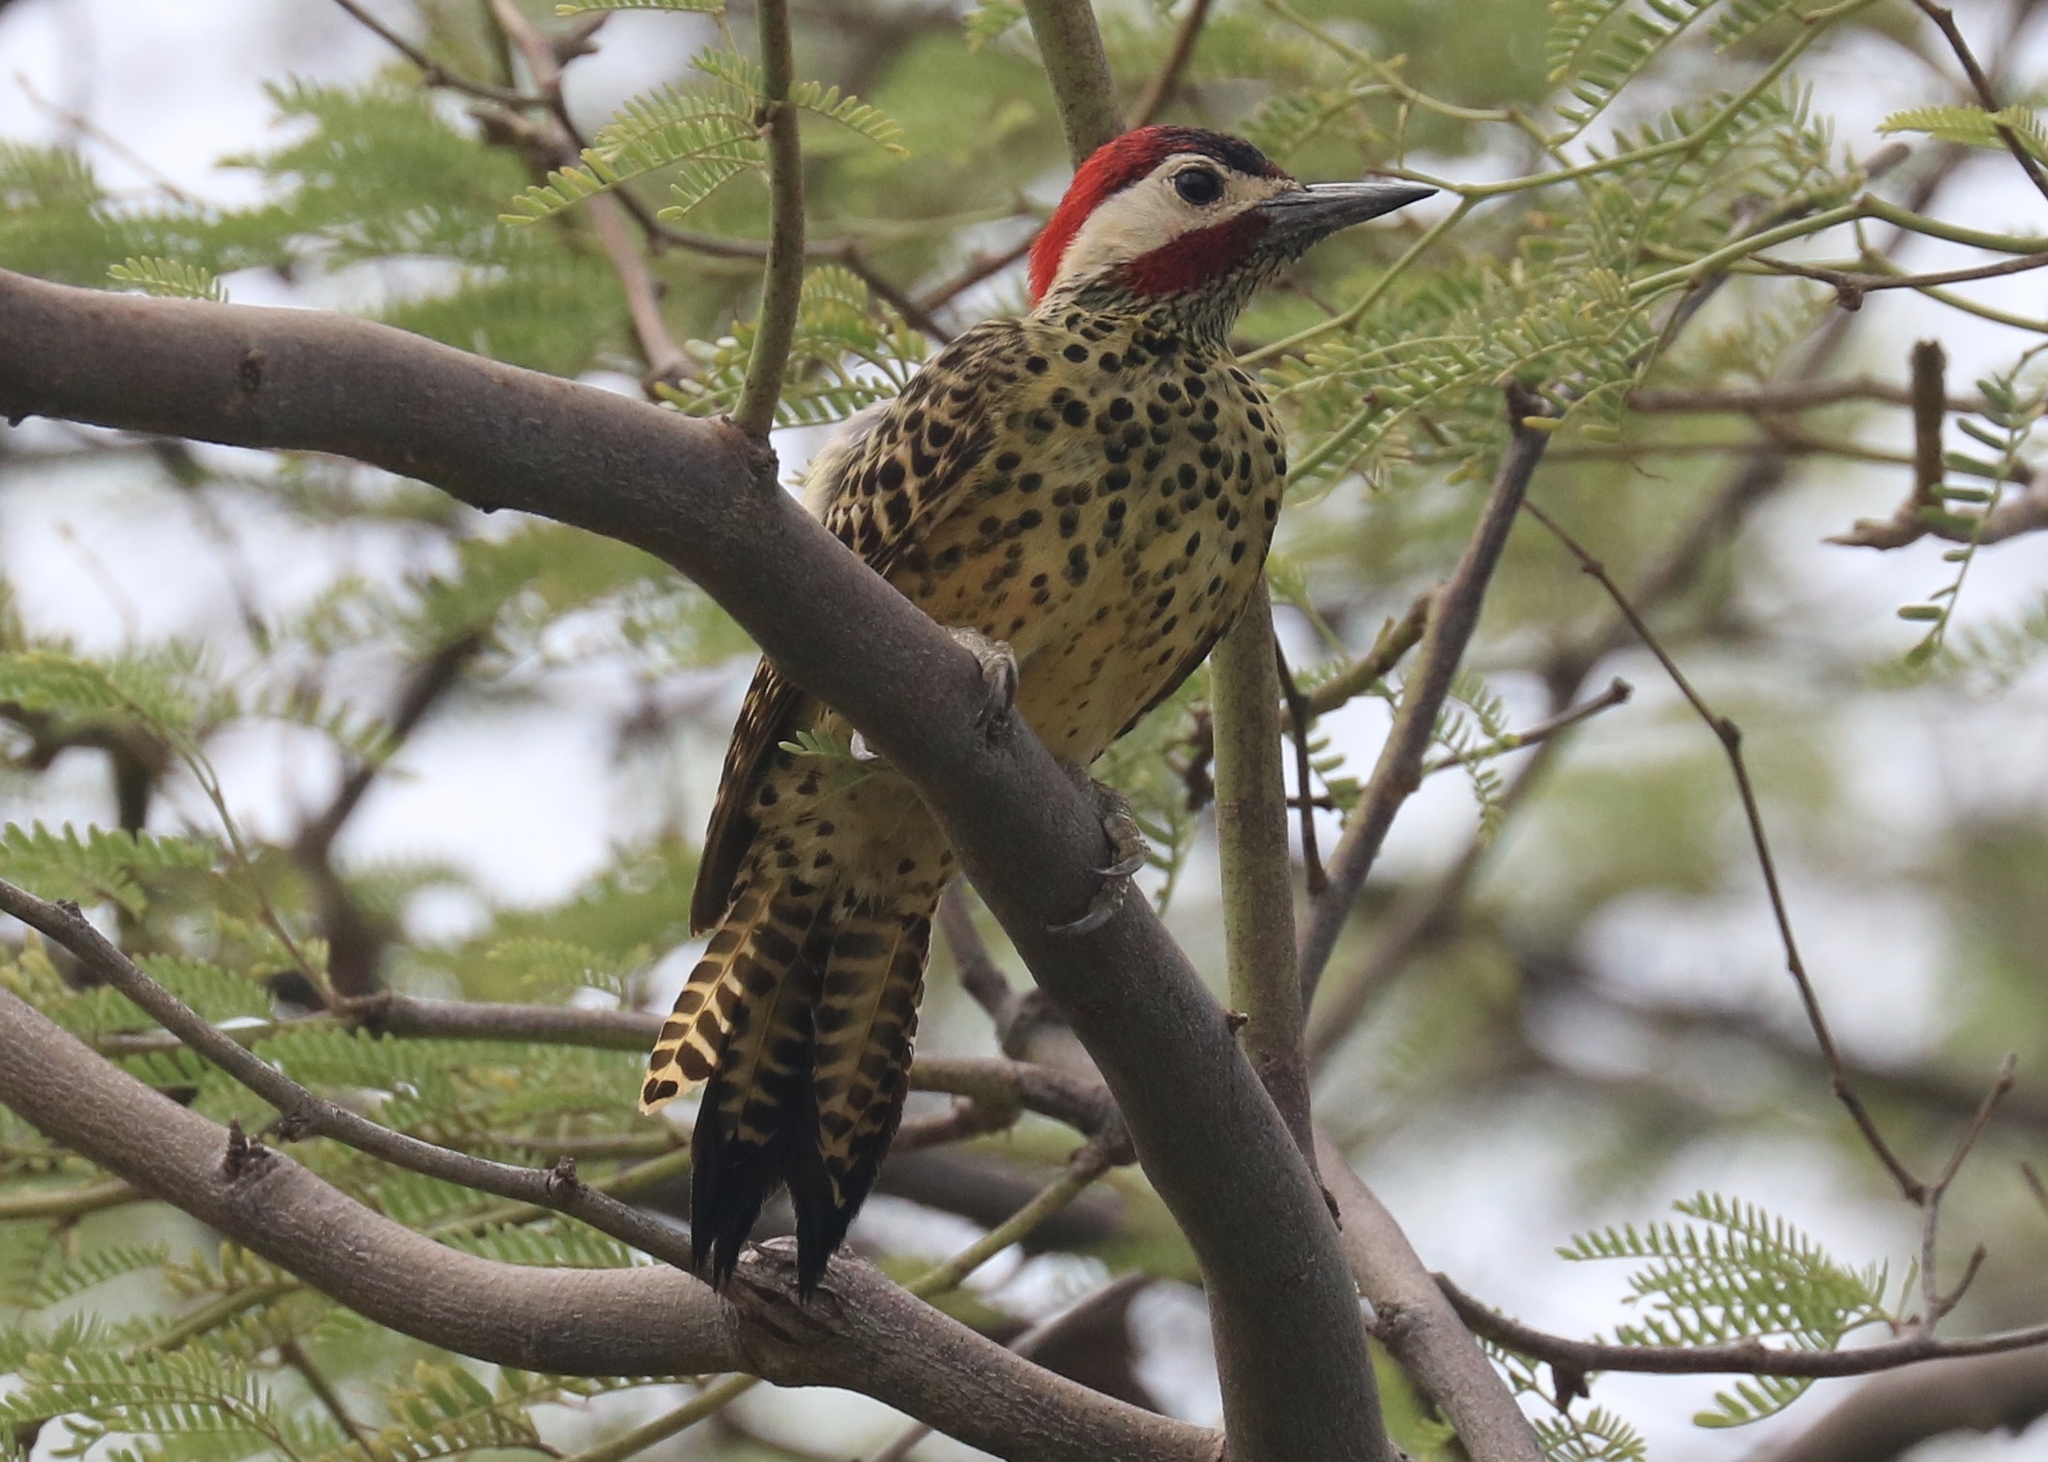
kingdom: Animalia
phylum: Chordata
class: Aves
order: Piciformes
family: Picidae
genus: Colaptes
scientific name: Colaptes melanochloros
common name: Green-barred woodpecker
